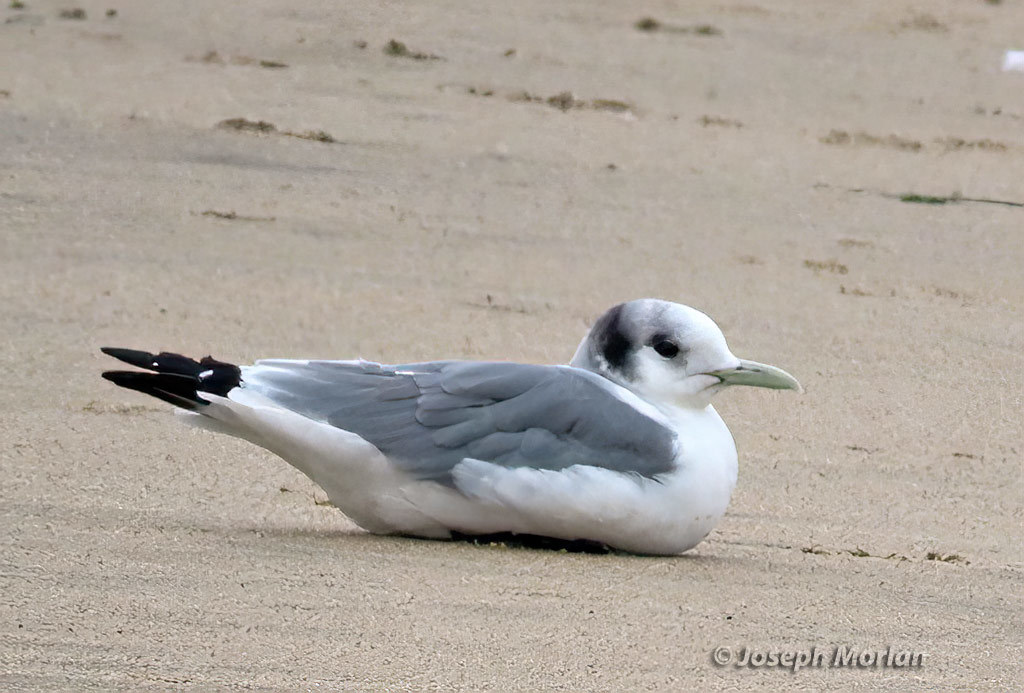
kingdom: Animalia
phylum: Chordata
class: Aves
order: Charadriiformes
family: Laridae
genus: Rissa
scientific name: Rissa tridactyla
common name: Black-legged kittiwake
